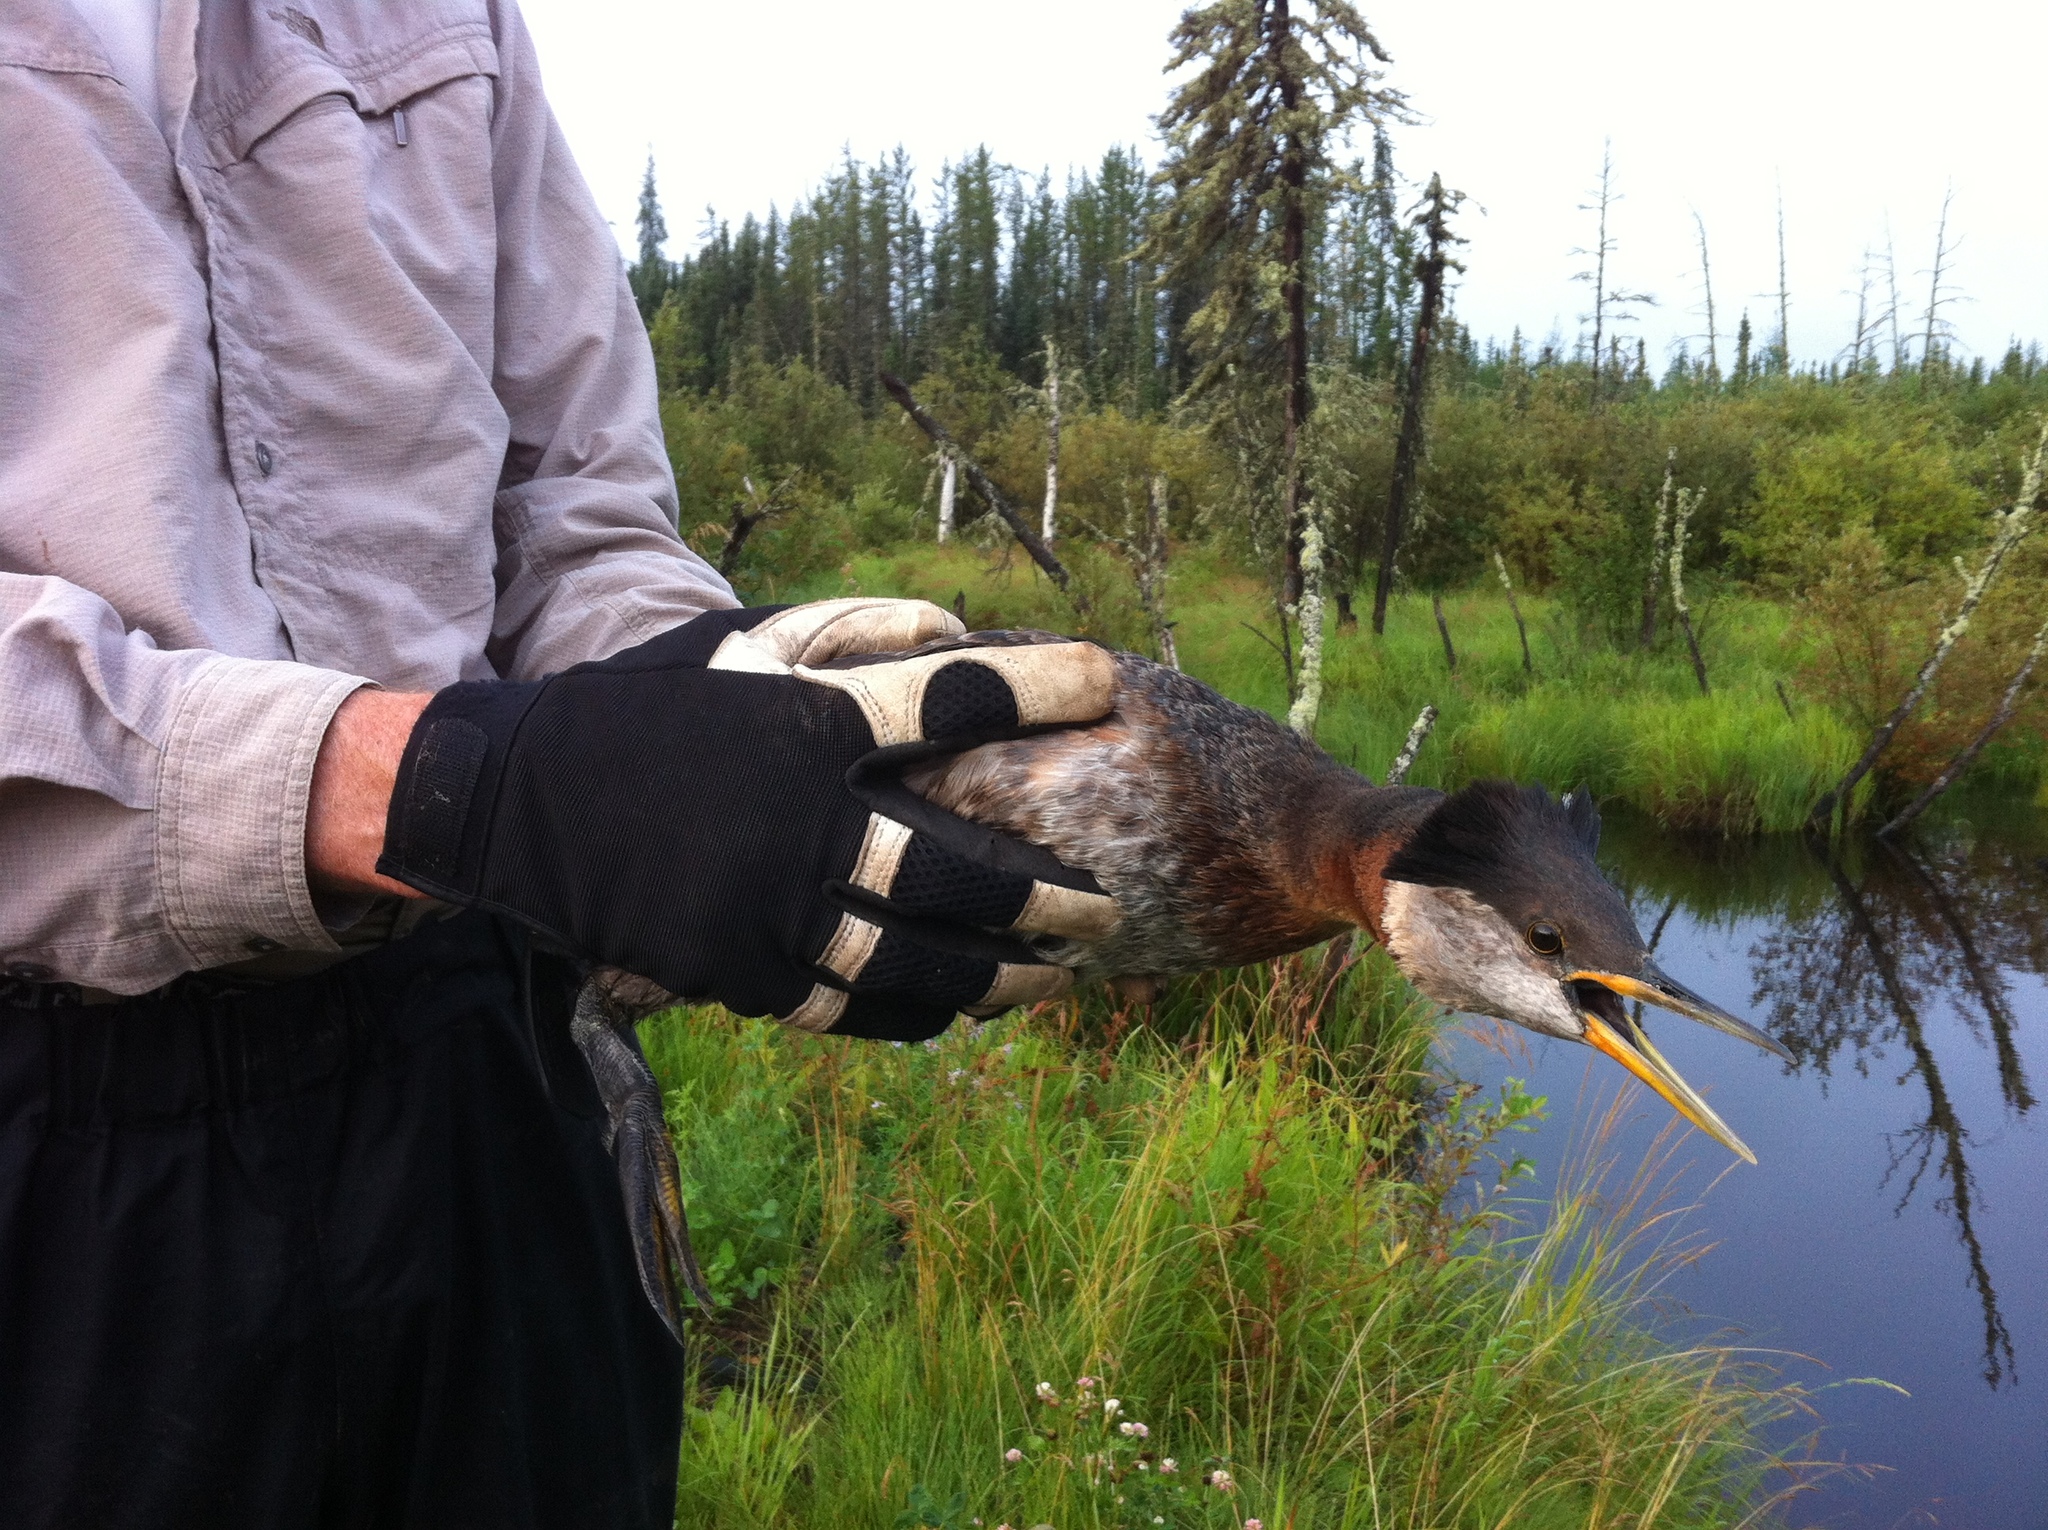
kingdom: Animalia
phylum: Chordata
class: Aves
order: Podicipediformes
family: Podicipedidae
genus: Podiceps
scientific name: Podiceps grisegena
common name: Red-necked grebe
